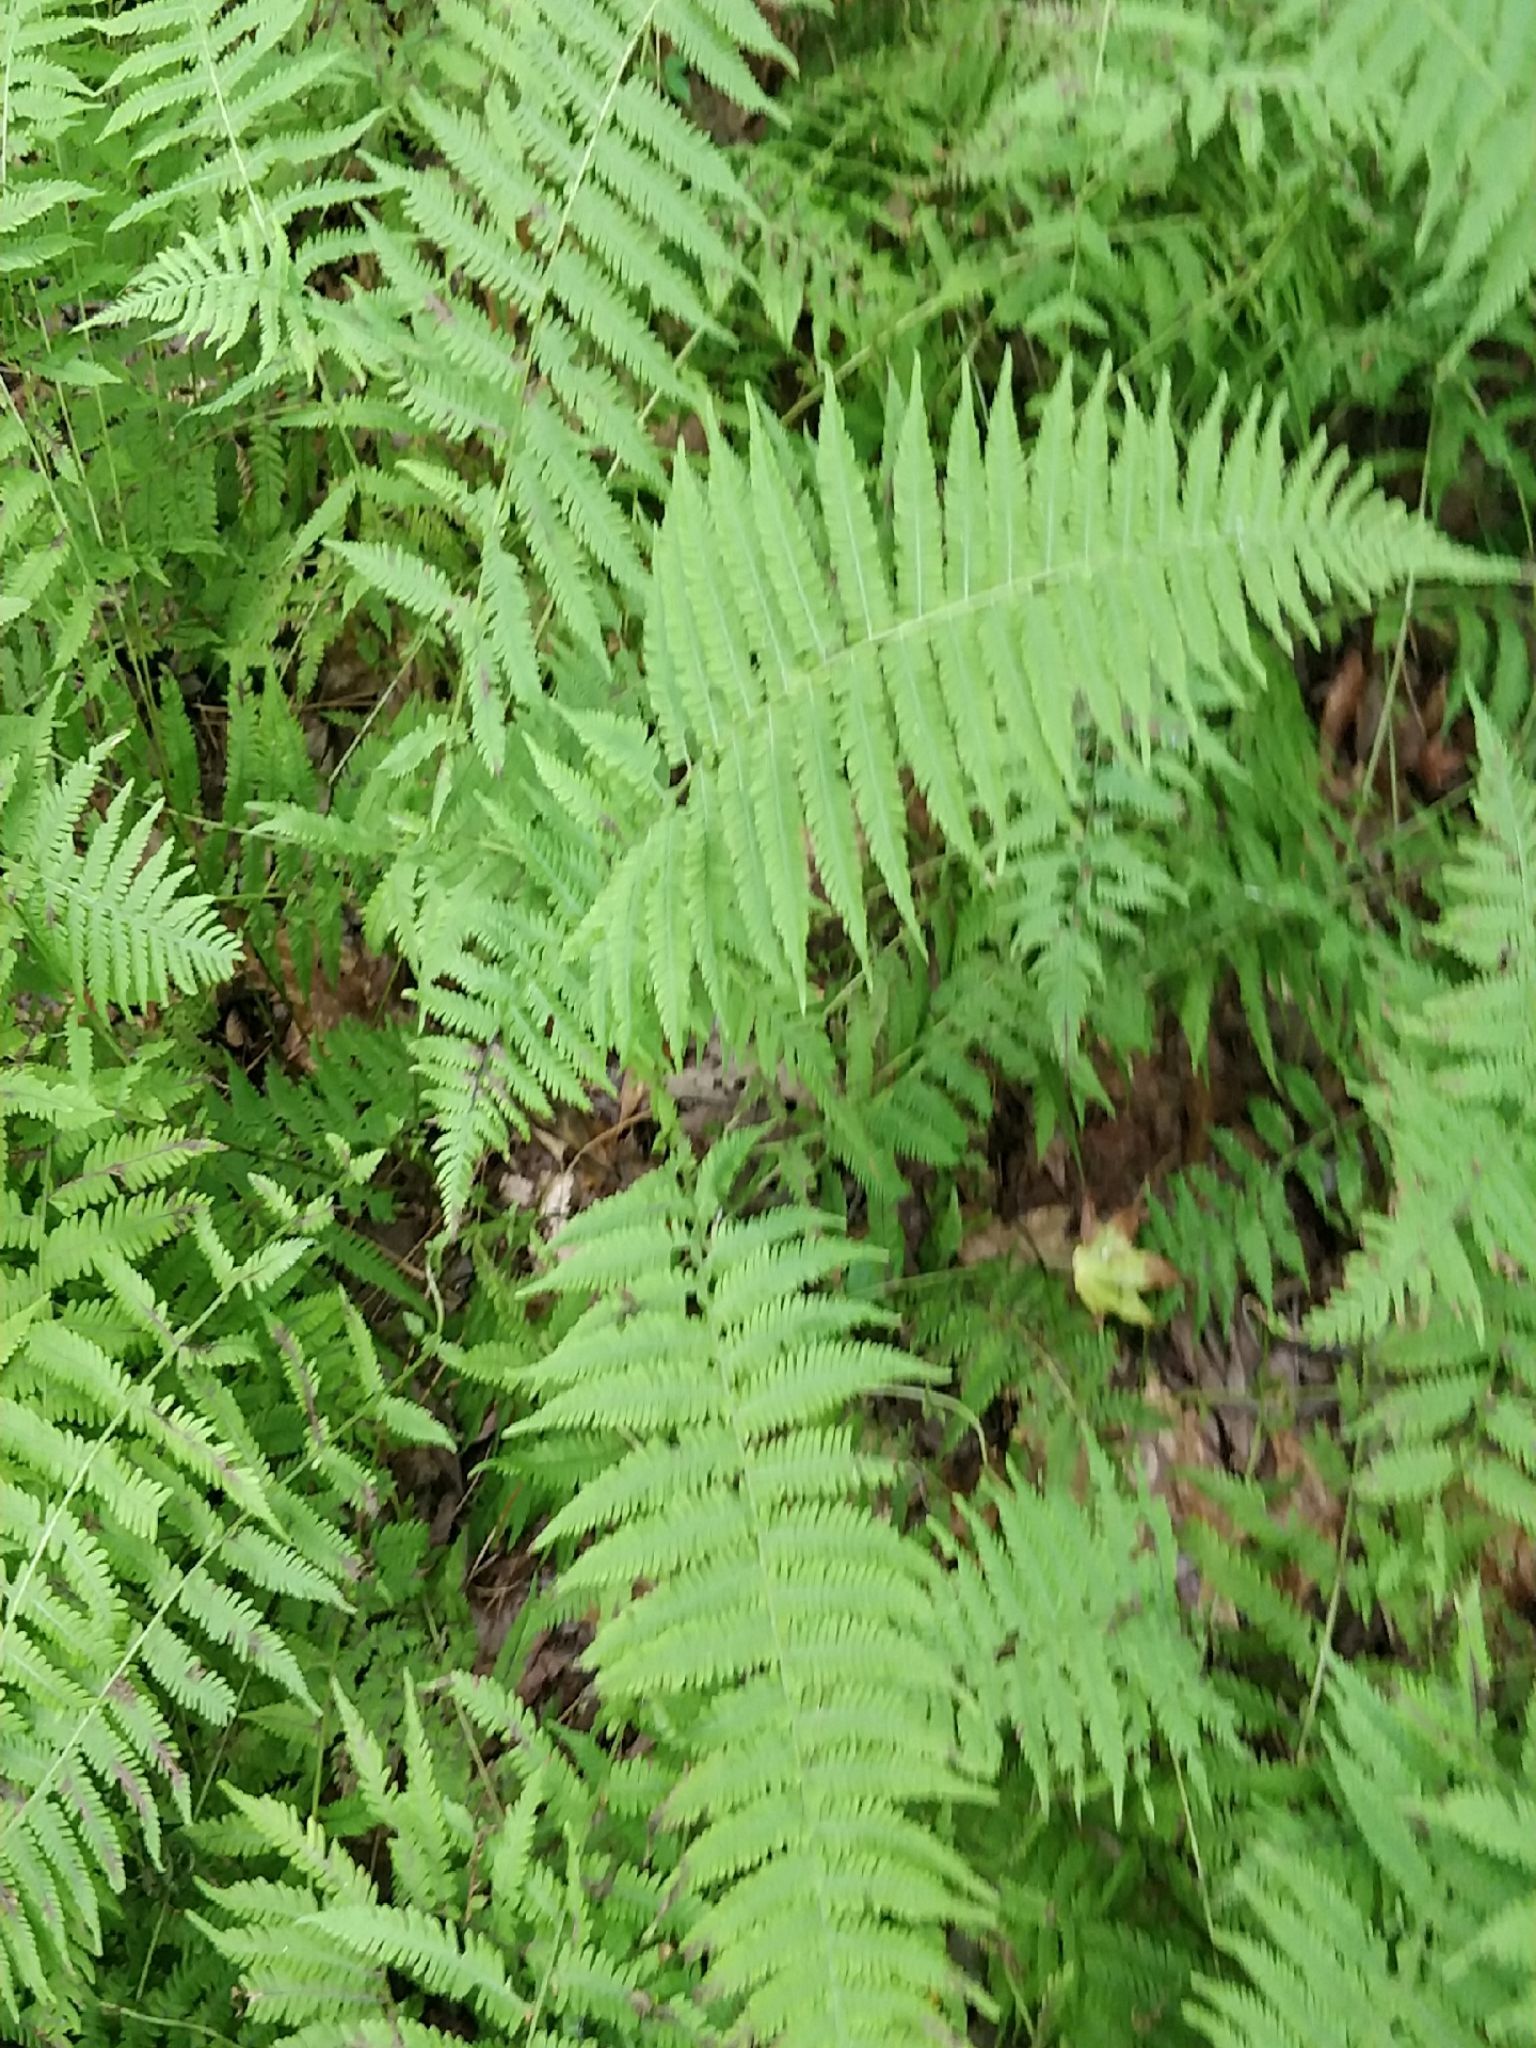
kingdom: Plantae
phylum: Tracheophyta
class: Polypodiopsida
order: Polypodiales
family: Thelypteridaceae
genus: Amauropelta
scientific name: Amauropelta noveboracensis
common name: New york fern
